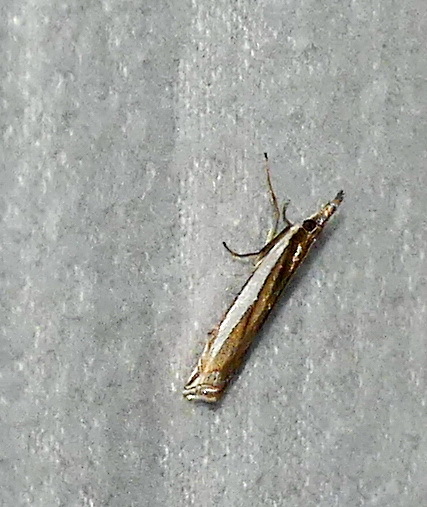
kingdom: Animalia
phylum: Arthropoda
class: Insecta
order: Lepidoptera
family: Crambidae
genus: Crambus
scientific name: Crambus leachellus
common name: Leach's grass-veneer
